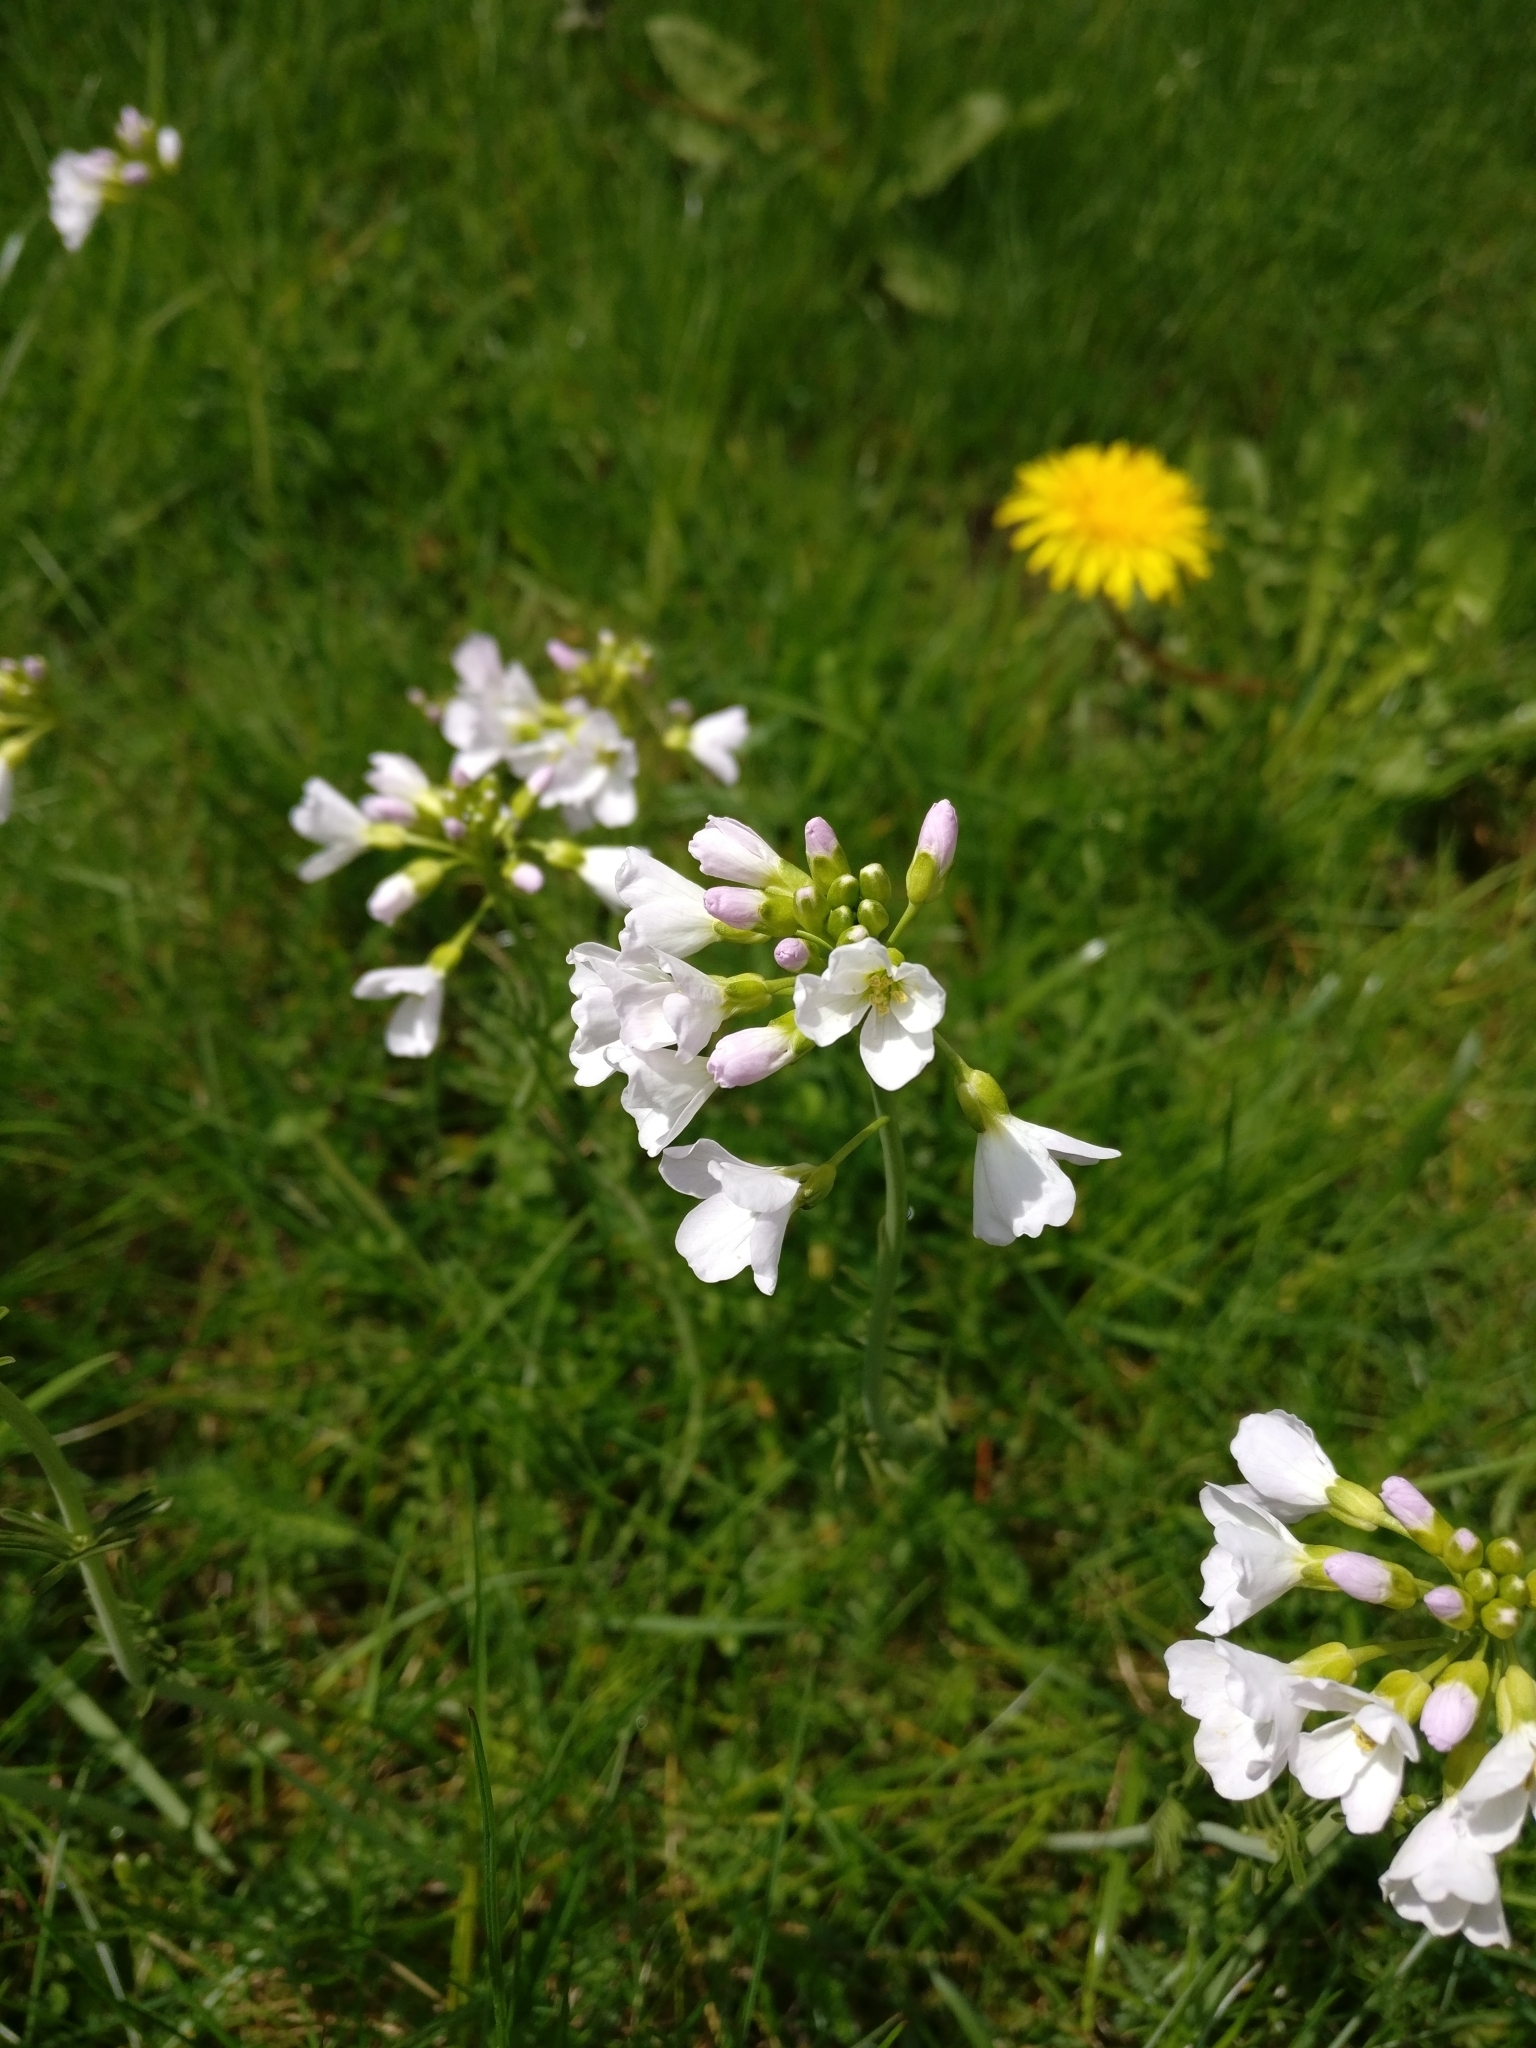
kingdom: Plantae
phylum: Tracheophyta
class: Magnoliopsida
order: Brassicales
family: Brassicaceae
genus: Cardamine
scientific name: Cardamine pratensis
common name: Cuckoo flower
